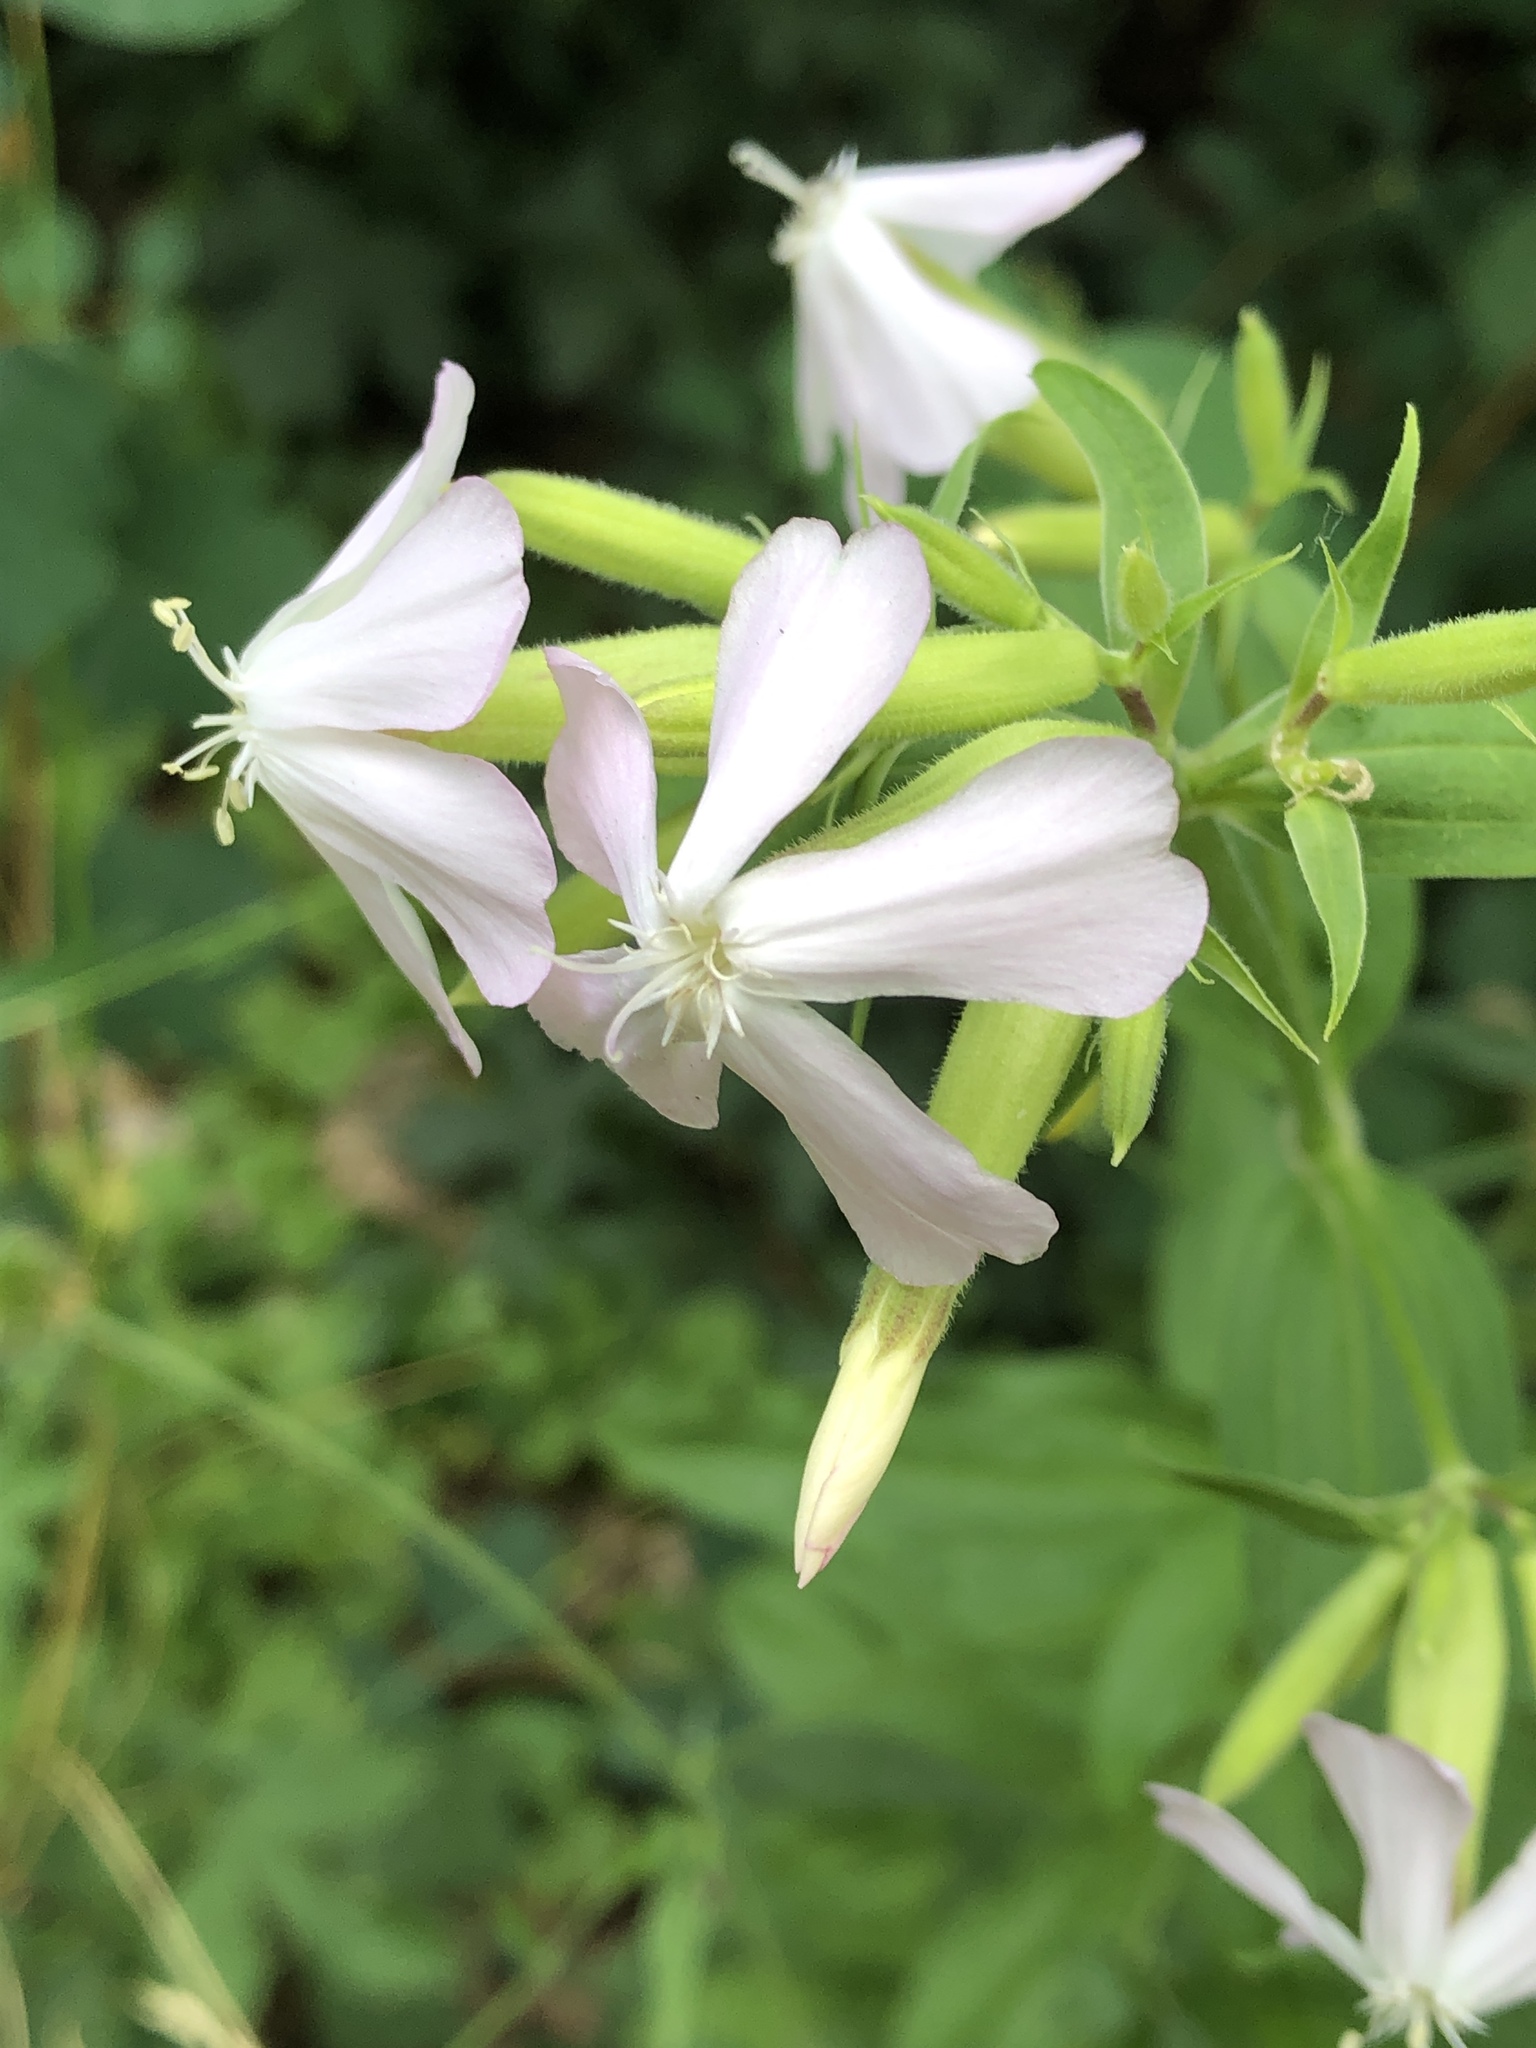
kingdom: Plantae
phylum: Tracheophyta
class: Magnoliopsida
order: Caryophyllales
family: Caryophyllaceae
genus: Saponaria
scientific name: Saponaria officinalis
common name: Soapwort
